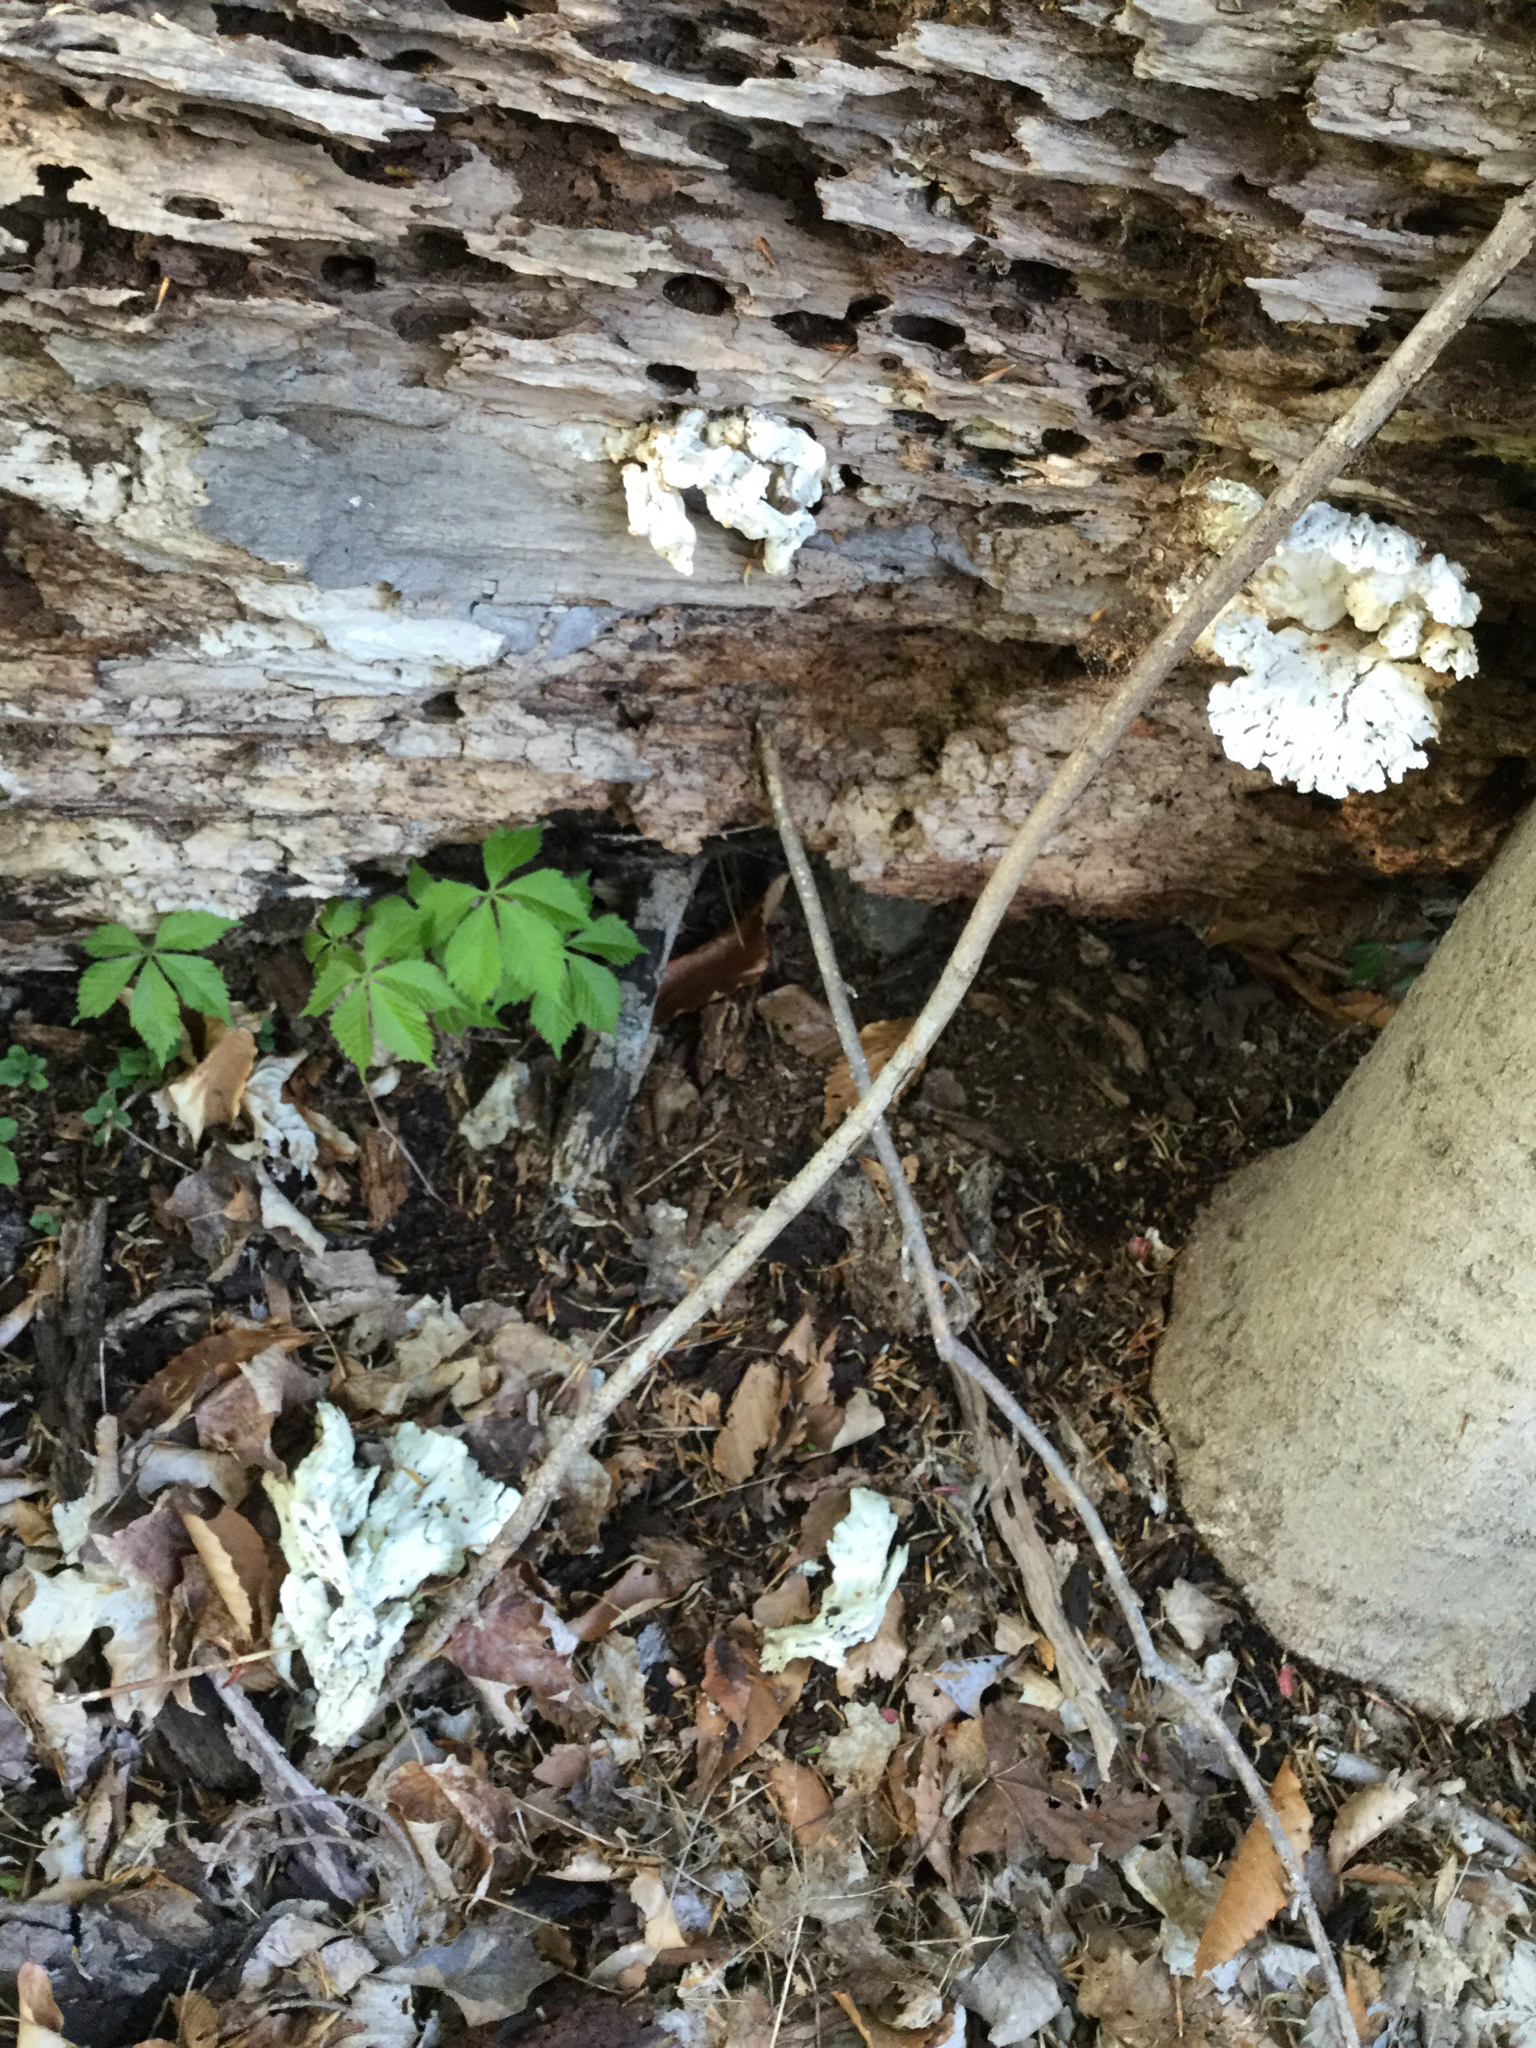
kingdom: Fungi
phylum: Basidiomycota
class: Agaricomycetes
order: Polyporales
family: Laetiporaceae
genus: Laetiporus
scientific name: Laetiporus sulphureus
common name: Chicken of the woods
